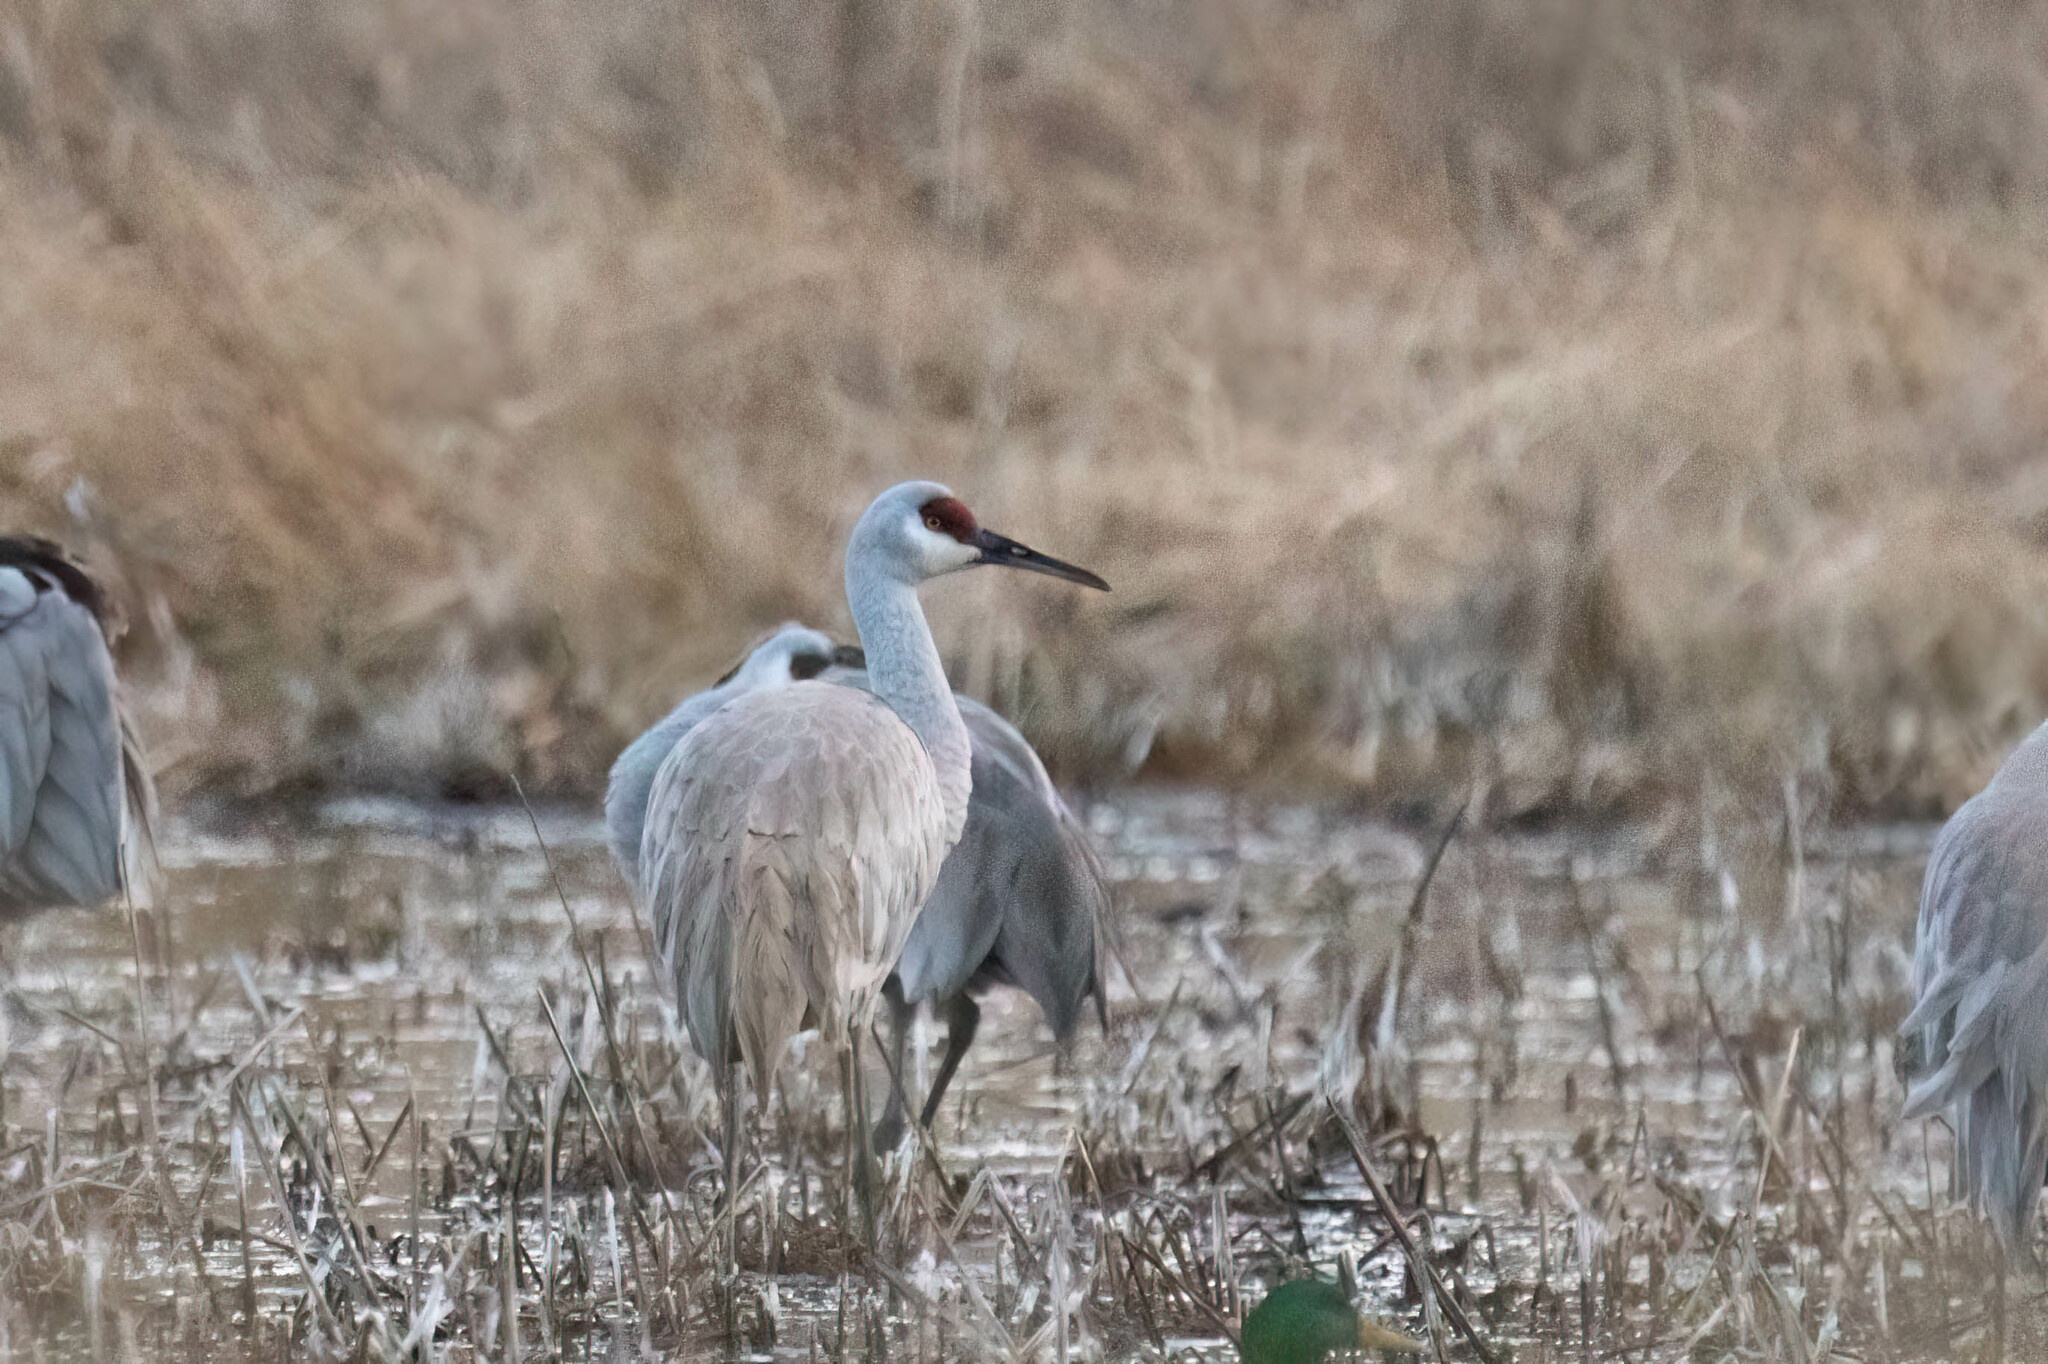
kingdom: Animalia
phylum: Chordata
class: Aves
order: Gruiformes
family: Gruidae
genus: Grus
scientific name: Grus canadensis
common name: Sandhill crane
